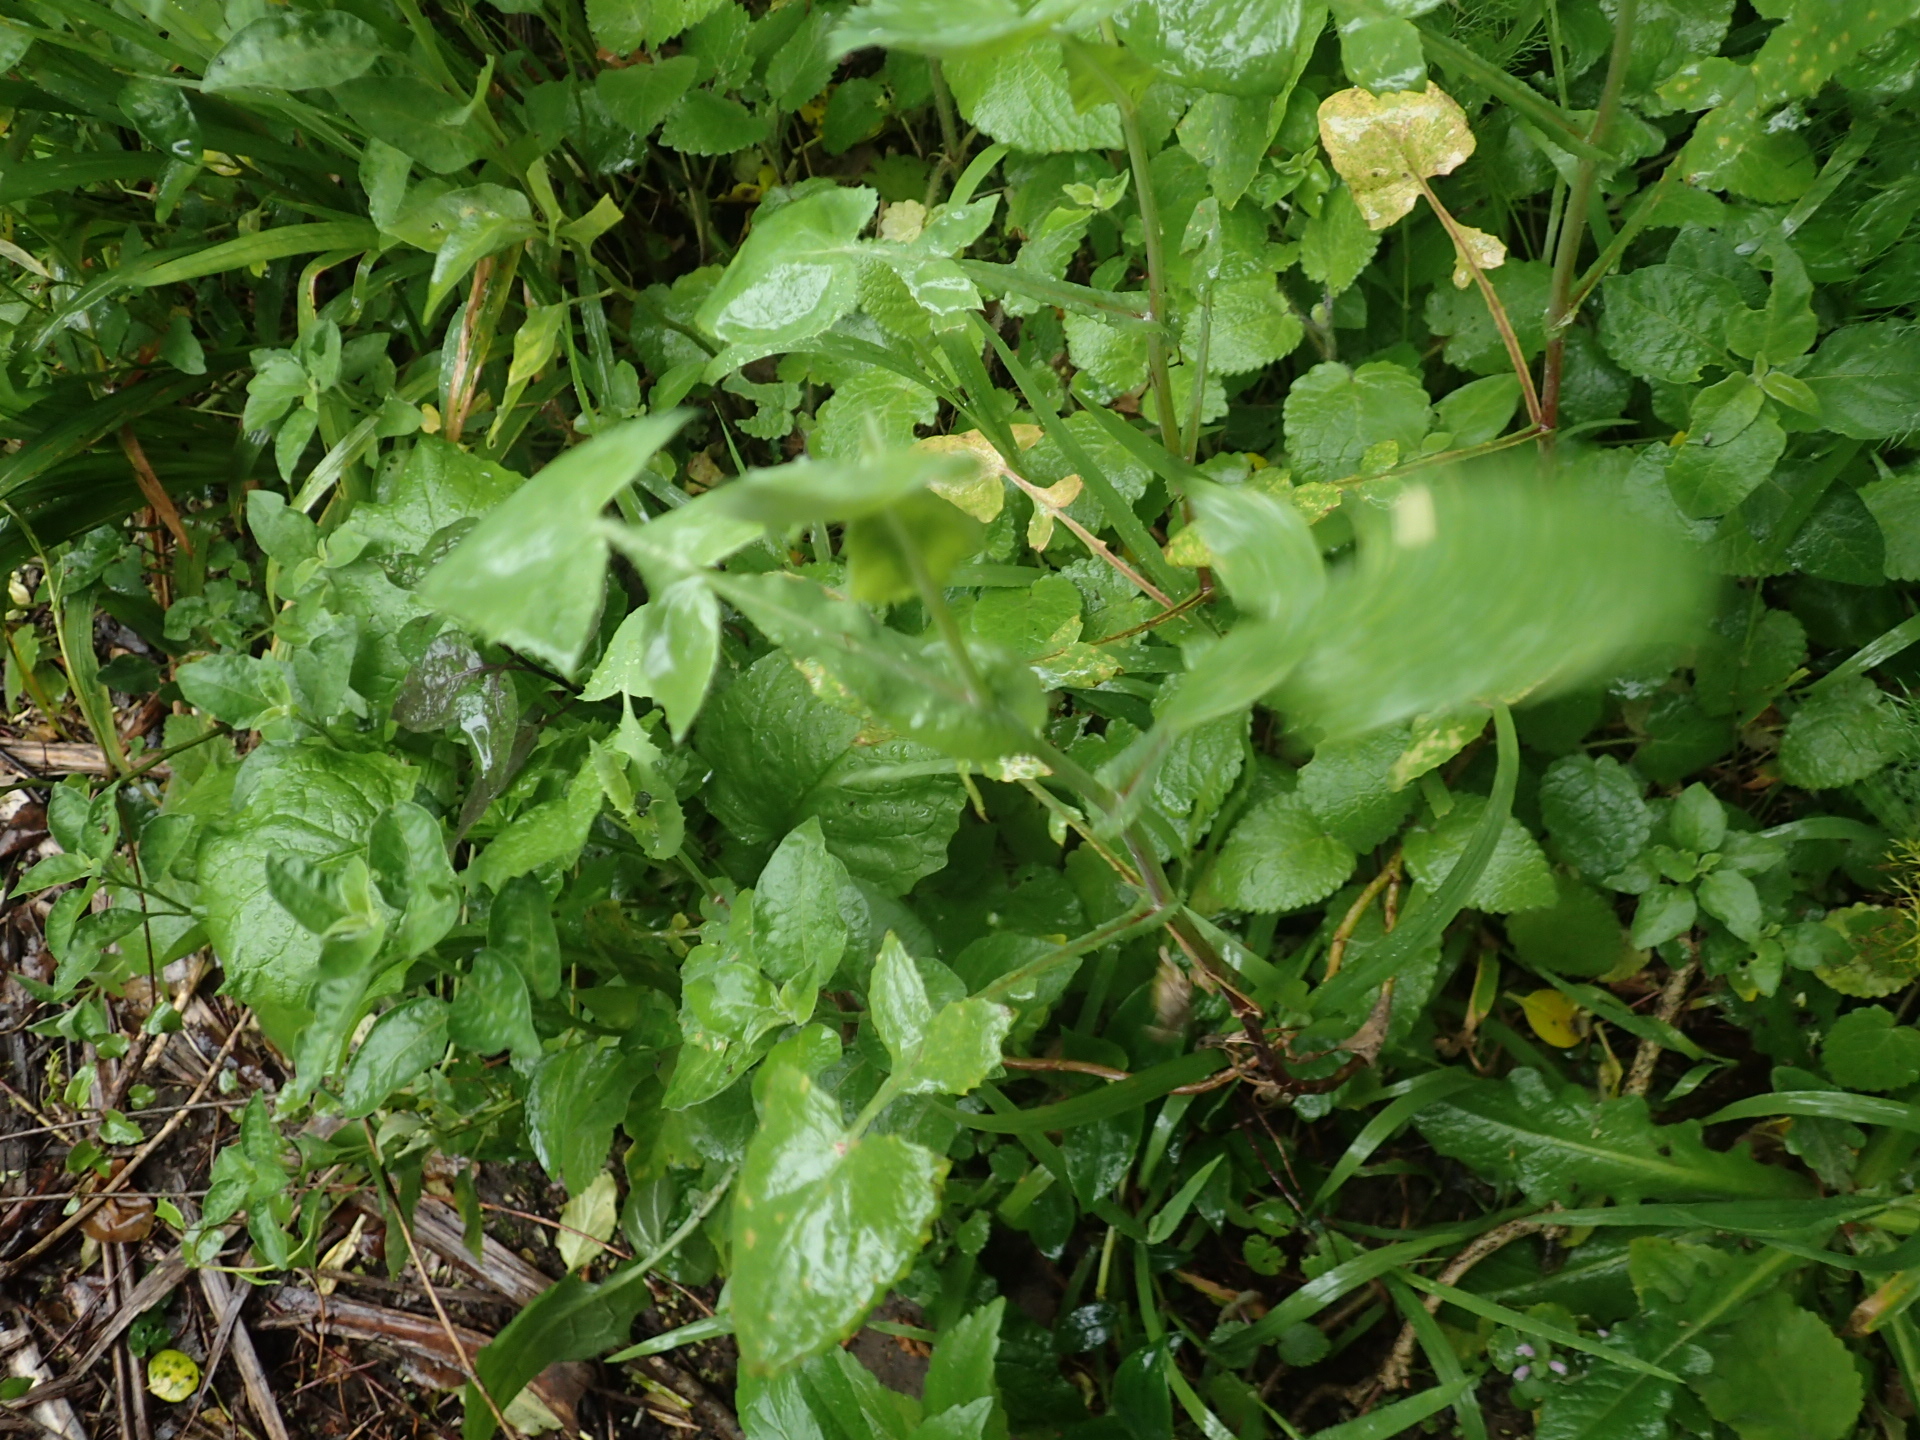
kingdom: Plantae
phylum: Tracheophyta
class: Magnoliopsida
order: Asterales
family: Asteraceae
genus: Sonchus
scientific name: Sonchus oleraceus
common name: Common sowthistle
